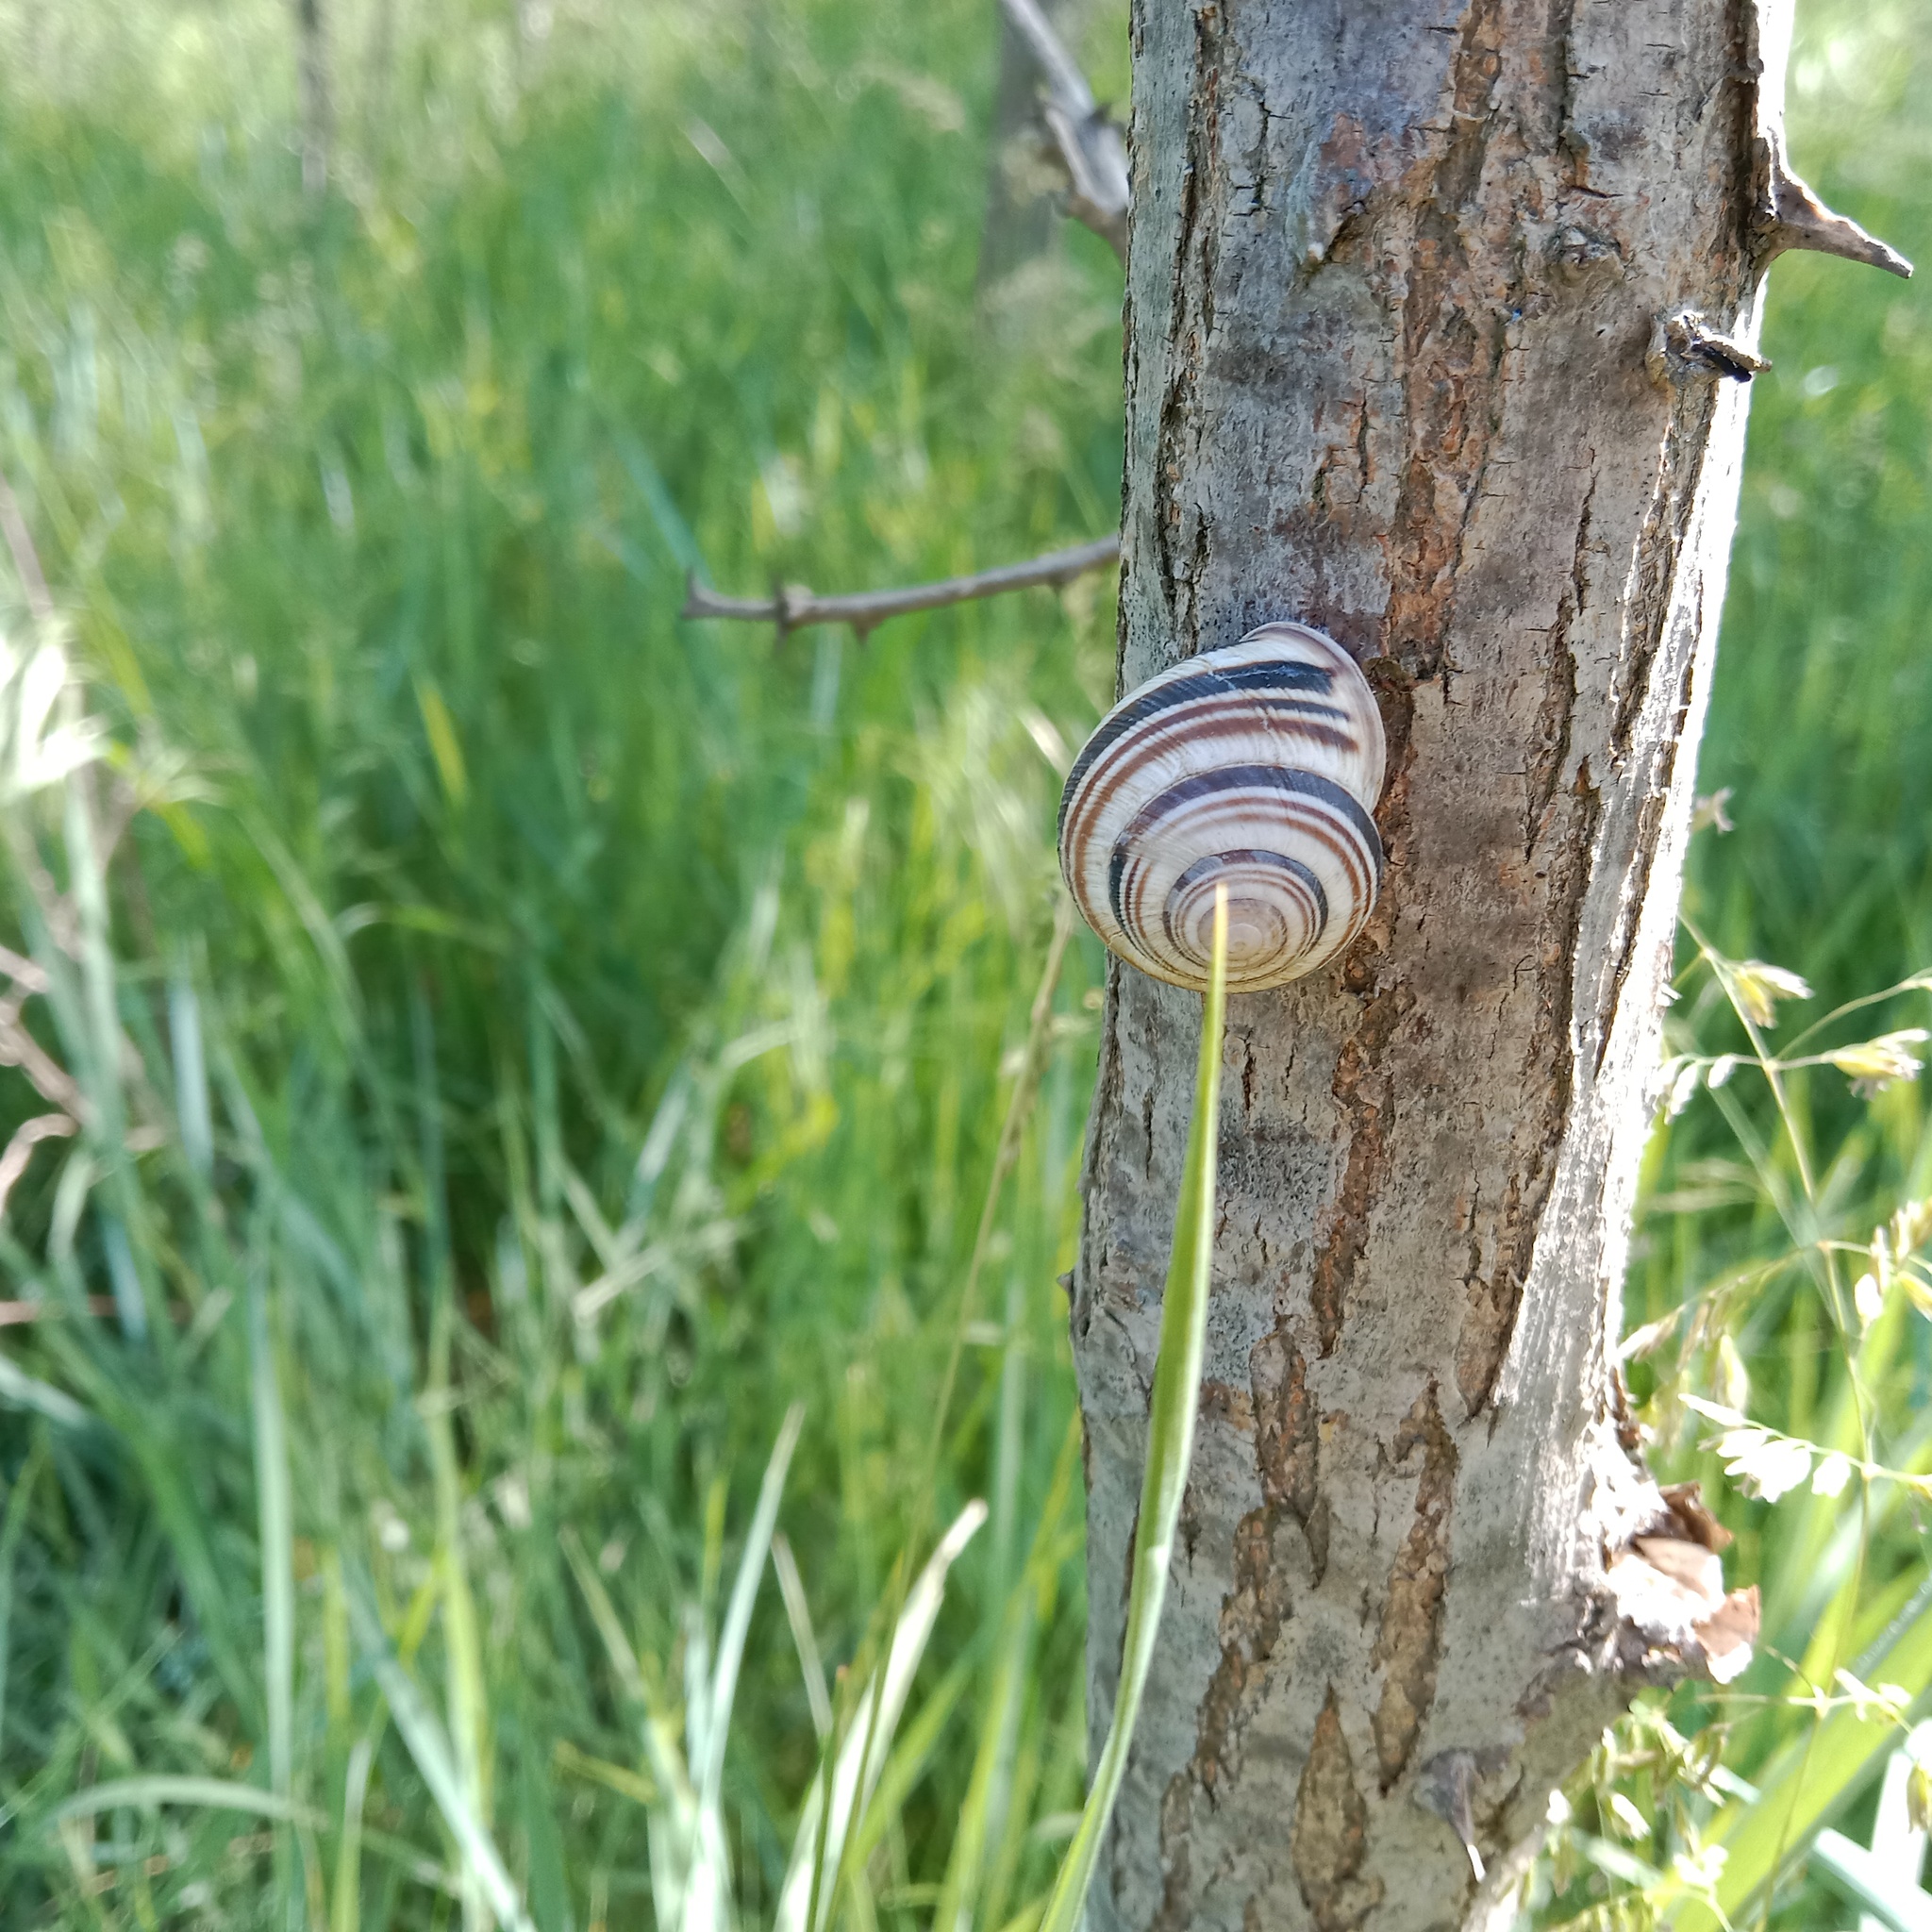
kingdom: Animalia
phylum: Mollusca
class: Gastropoda
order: Stylommatophora
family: Helicidae
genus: Caucasotachea
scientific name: Caucasotachea vindobonensis
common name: European helicid land snail
